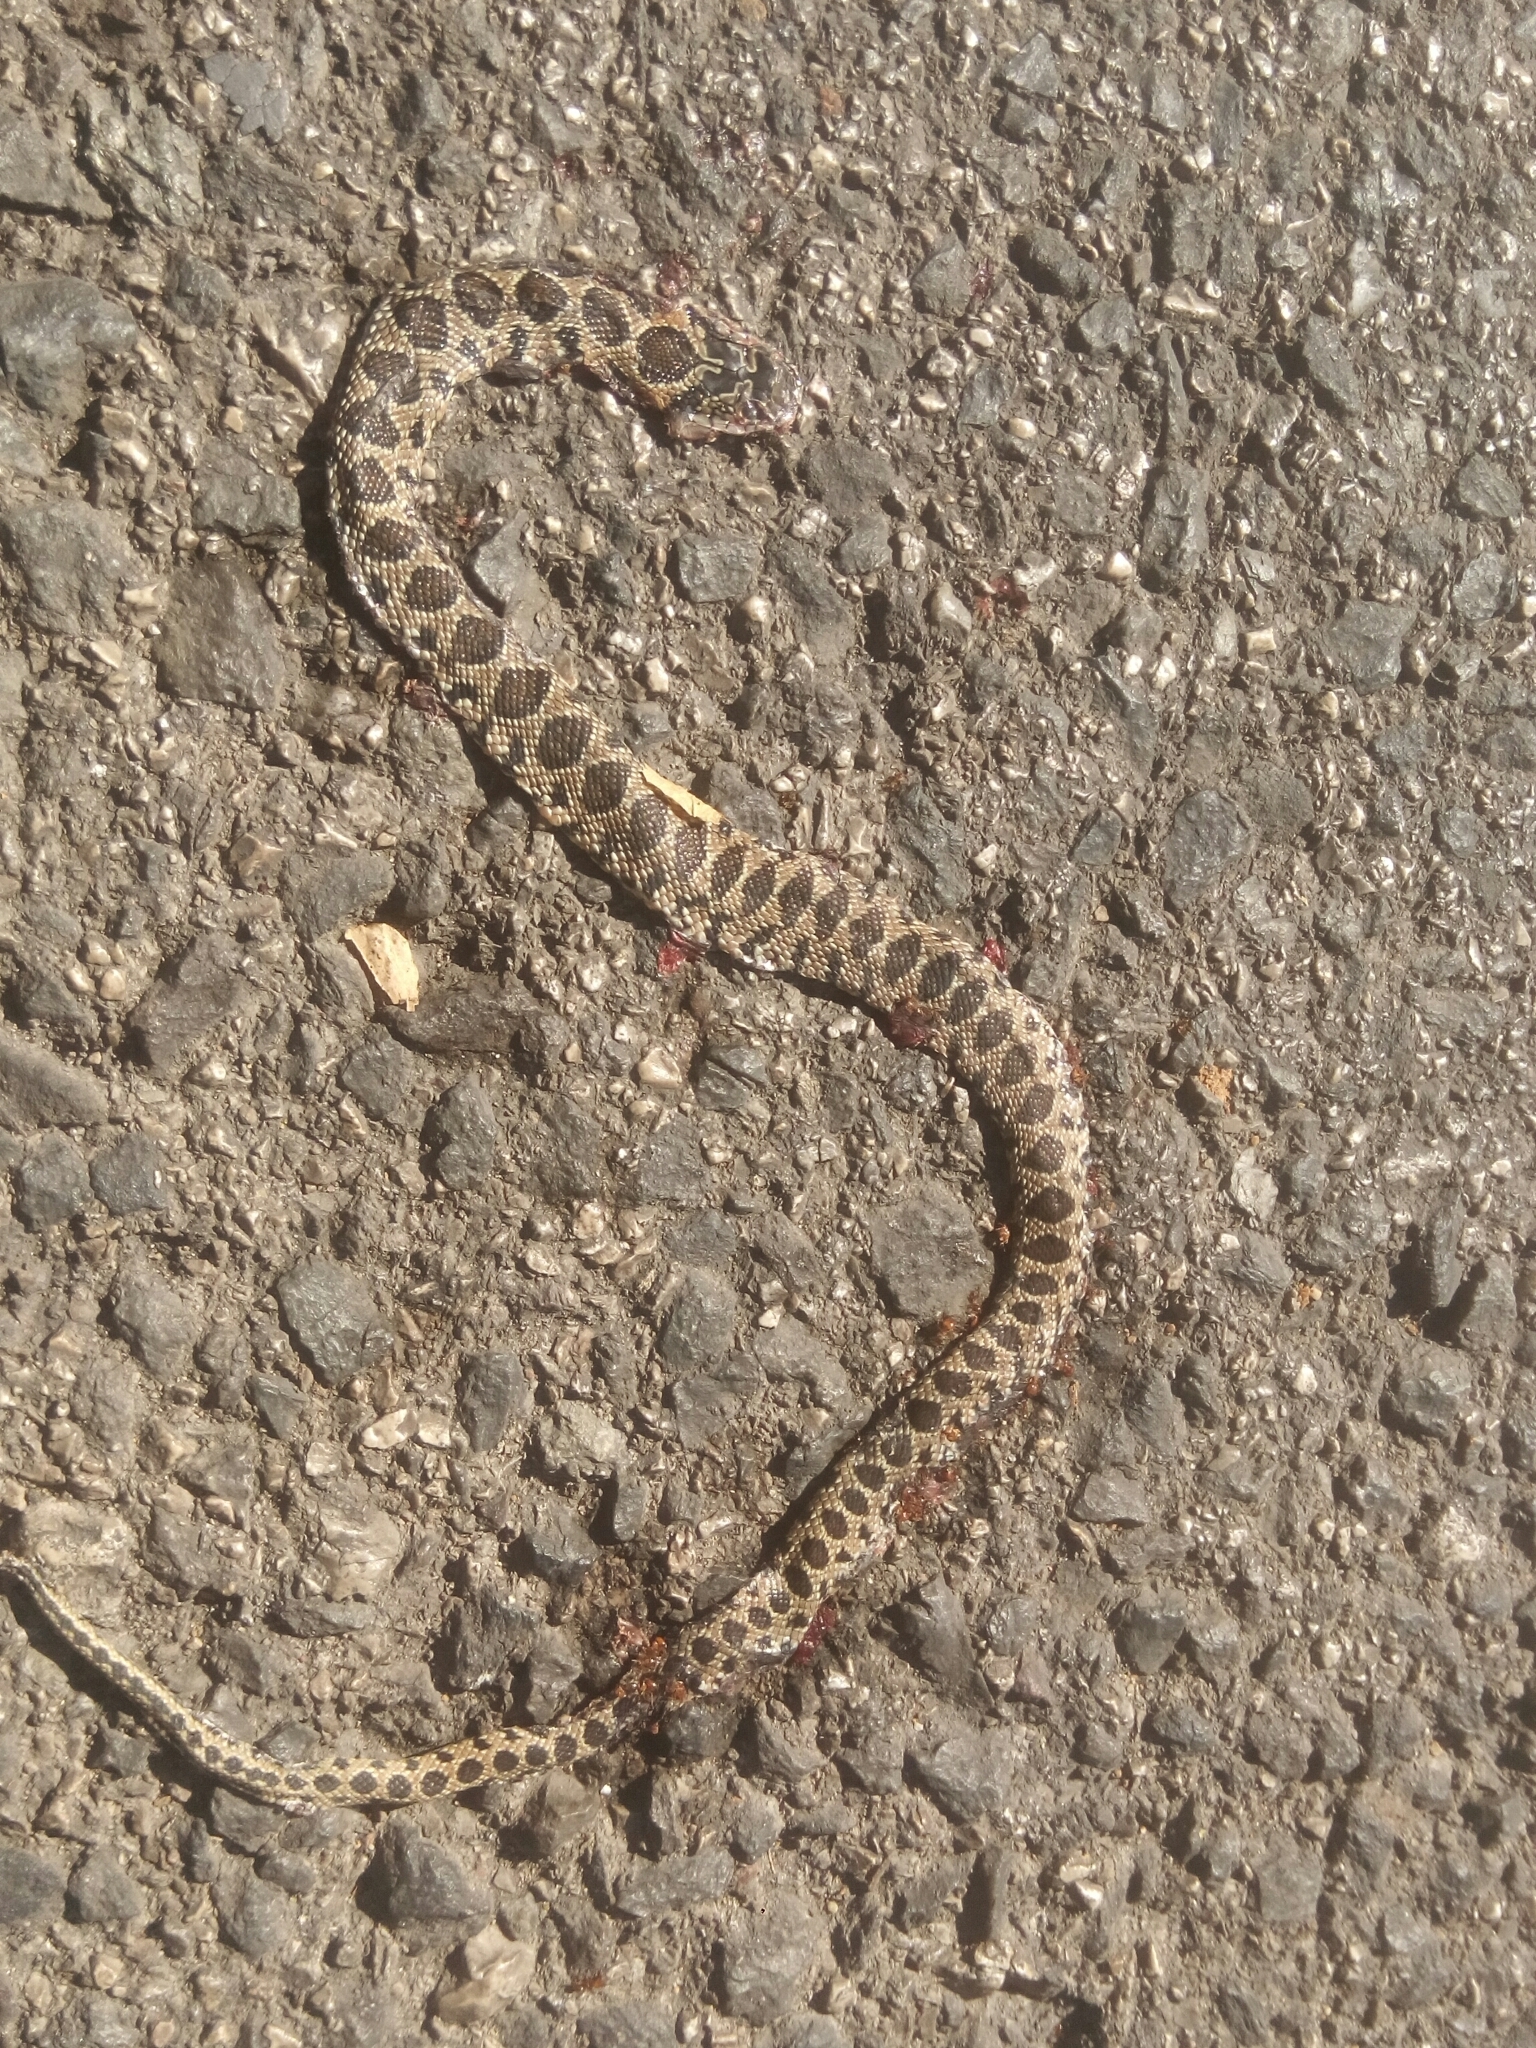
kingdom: Animalia
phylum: Chordata
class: Squamata
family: Colubridae
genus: Hemorrhois
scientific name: Hemorrhois hippocrepis
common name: Horseshoe whip snake
